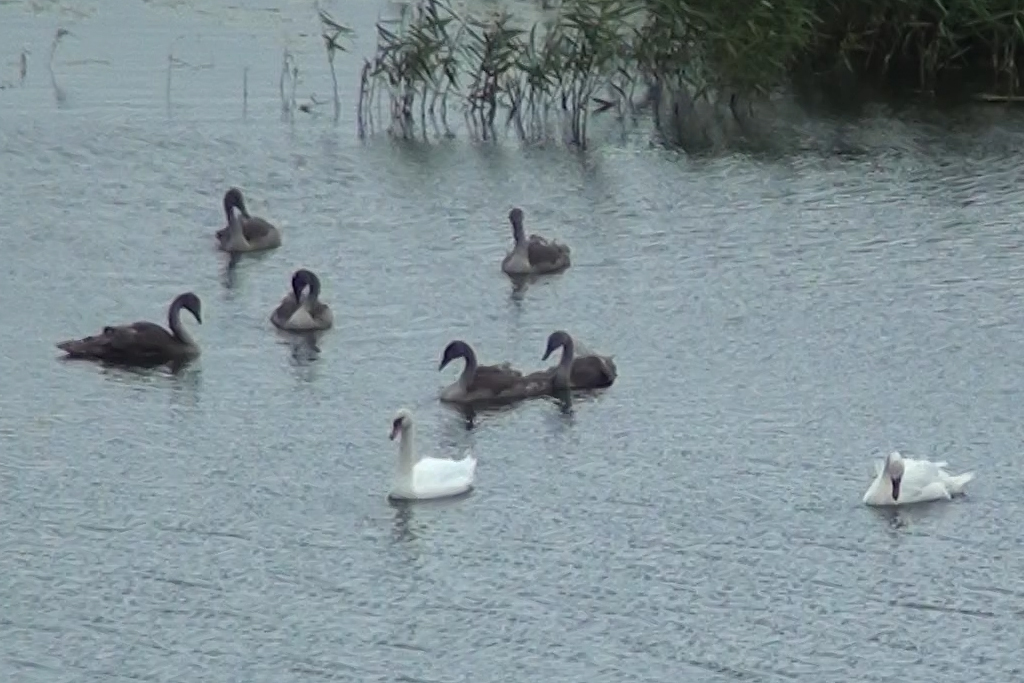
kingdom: Animalia
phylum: Chordata
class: Aves
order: Anseriformes
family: Anatidae
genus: Cygnus
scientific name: Cygnus olor
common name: Mute swan
